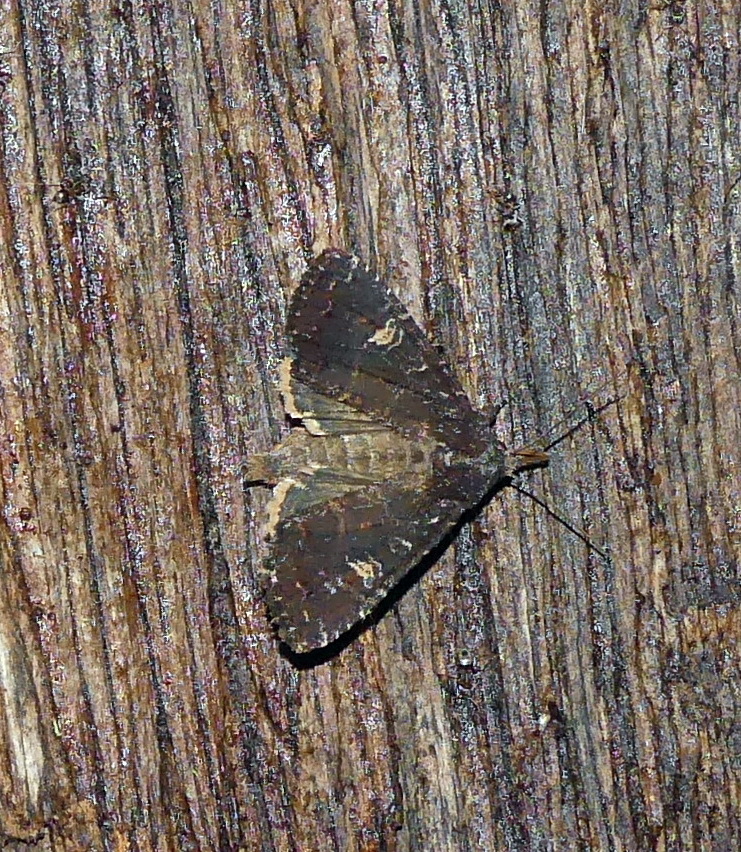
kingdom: Animalia
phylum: Arthropoda
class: Insecta
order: Lepidoptera
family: Noctuidae
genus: Apamea
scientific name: Apamea dubitans
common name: Doubtful apamea moth
